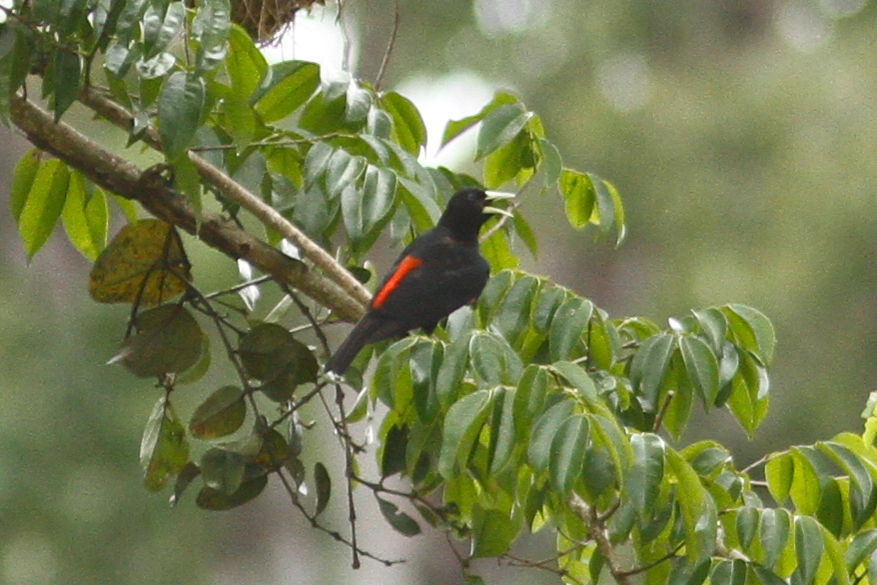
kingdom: Animalia
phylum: Chordata
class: Aves
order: Passeriformes
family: Icteridae
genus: Cacicus
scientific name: Cacicus haemorrhous
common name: Red-rumped cacique
